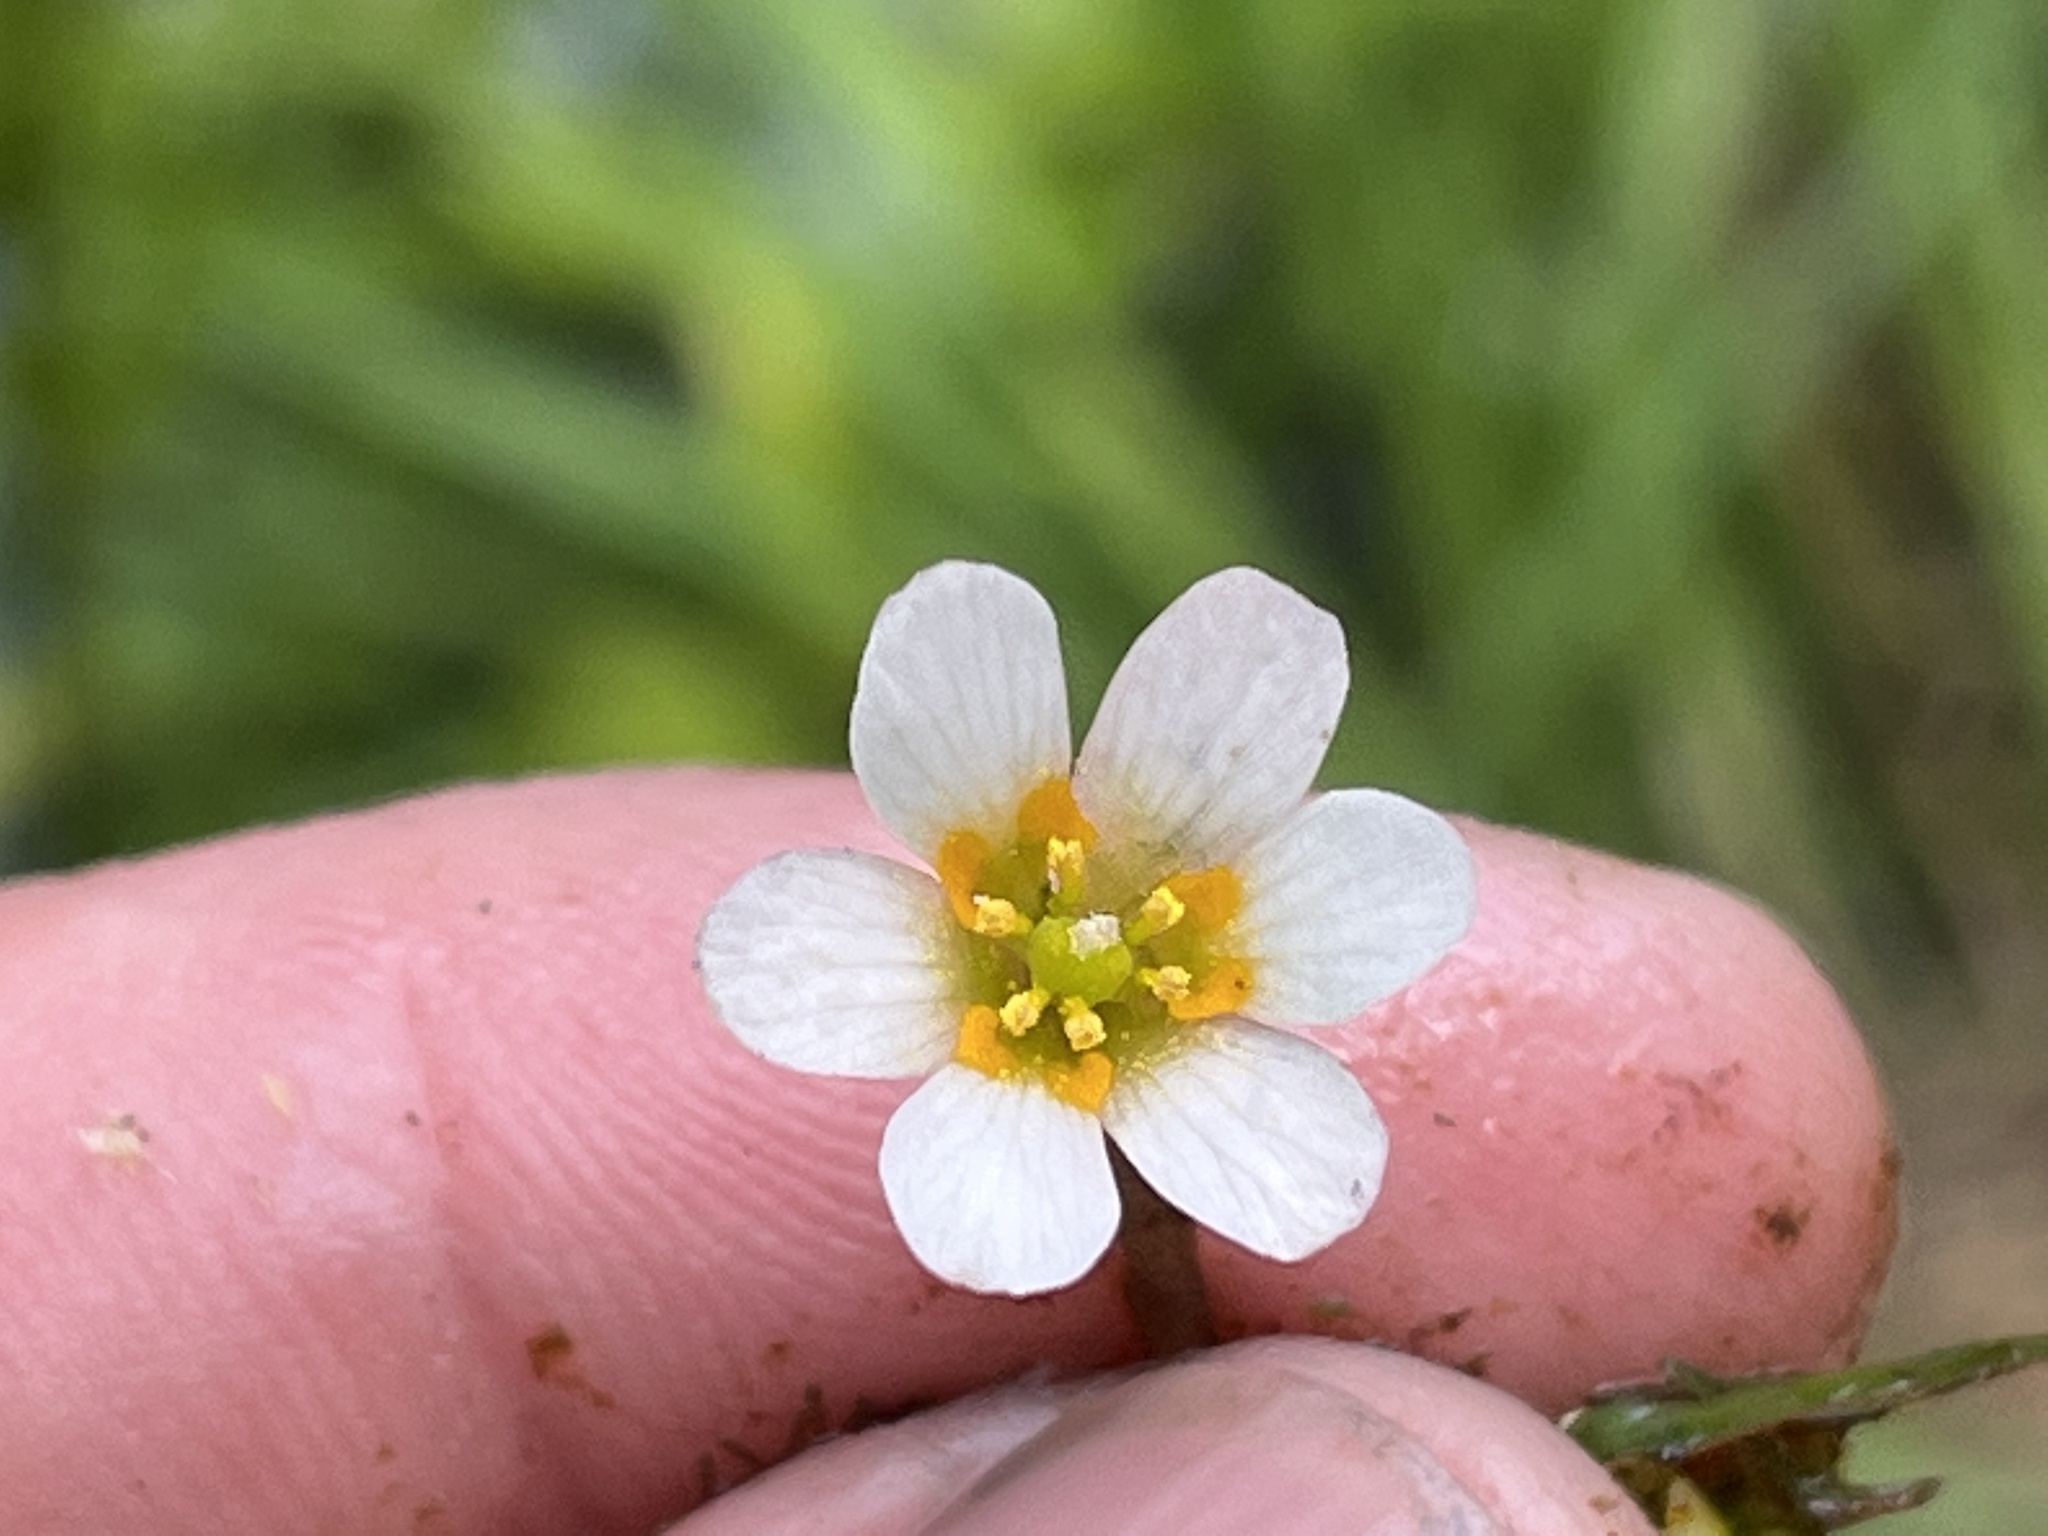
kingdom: Plantae
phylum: Tracheophyta
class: Magnoliopsida
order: Nymphaeales
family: Cabombaceae
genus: Cabomba
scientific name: Cabomba caroliniana
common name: Fanwort
